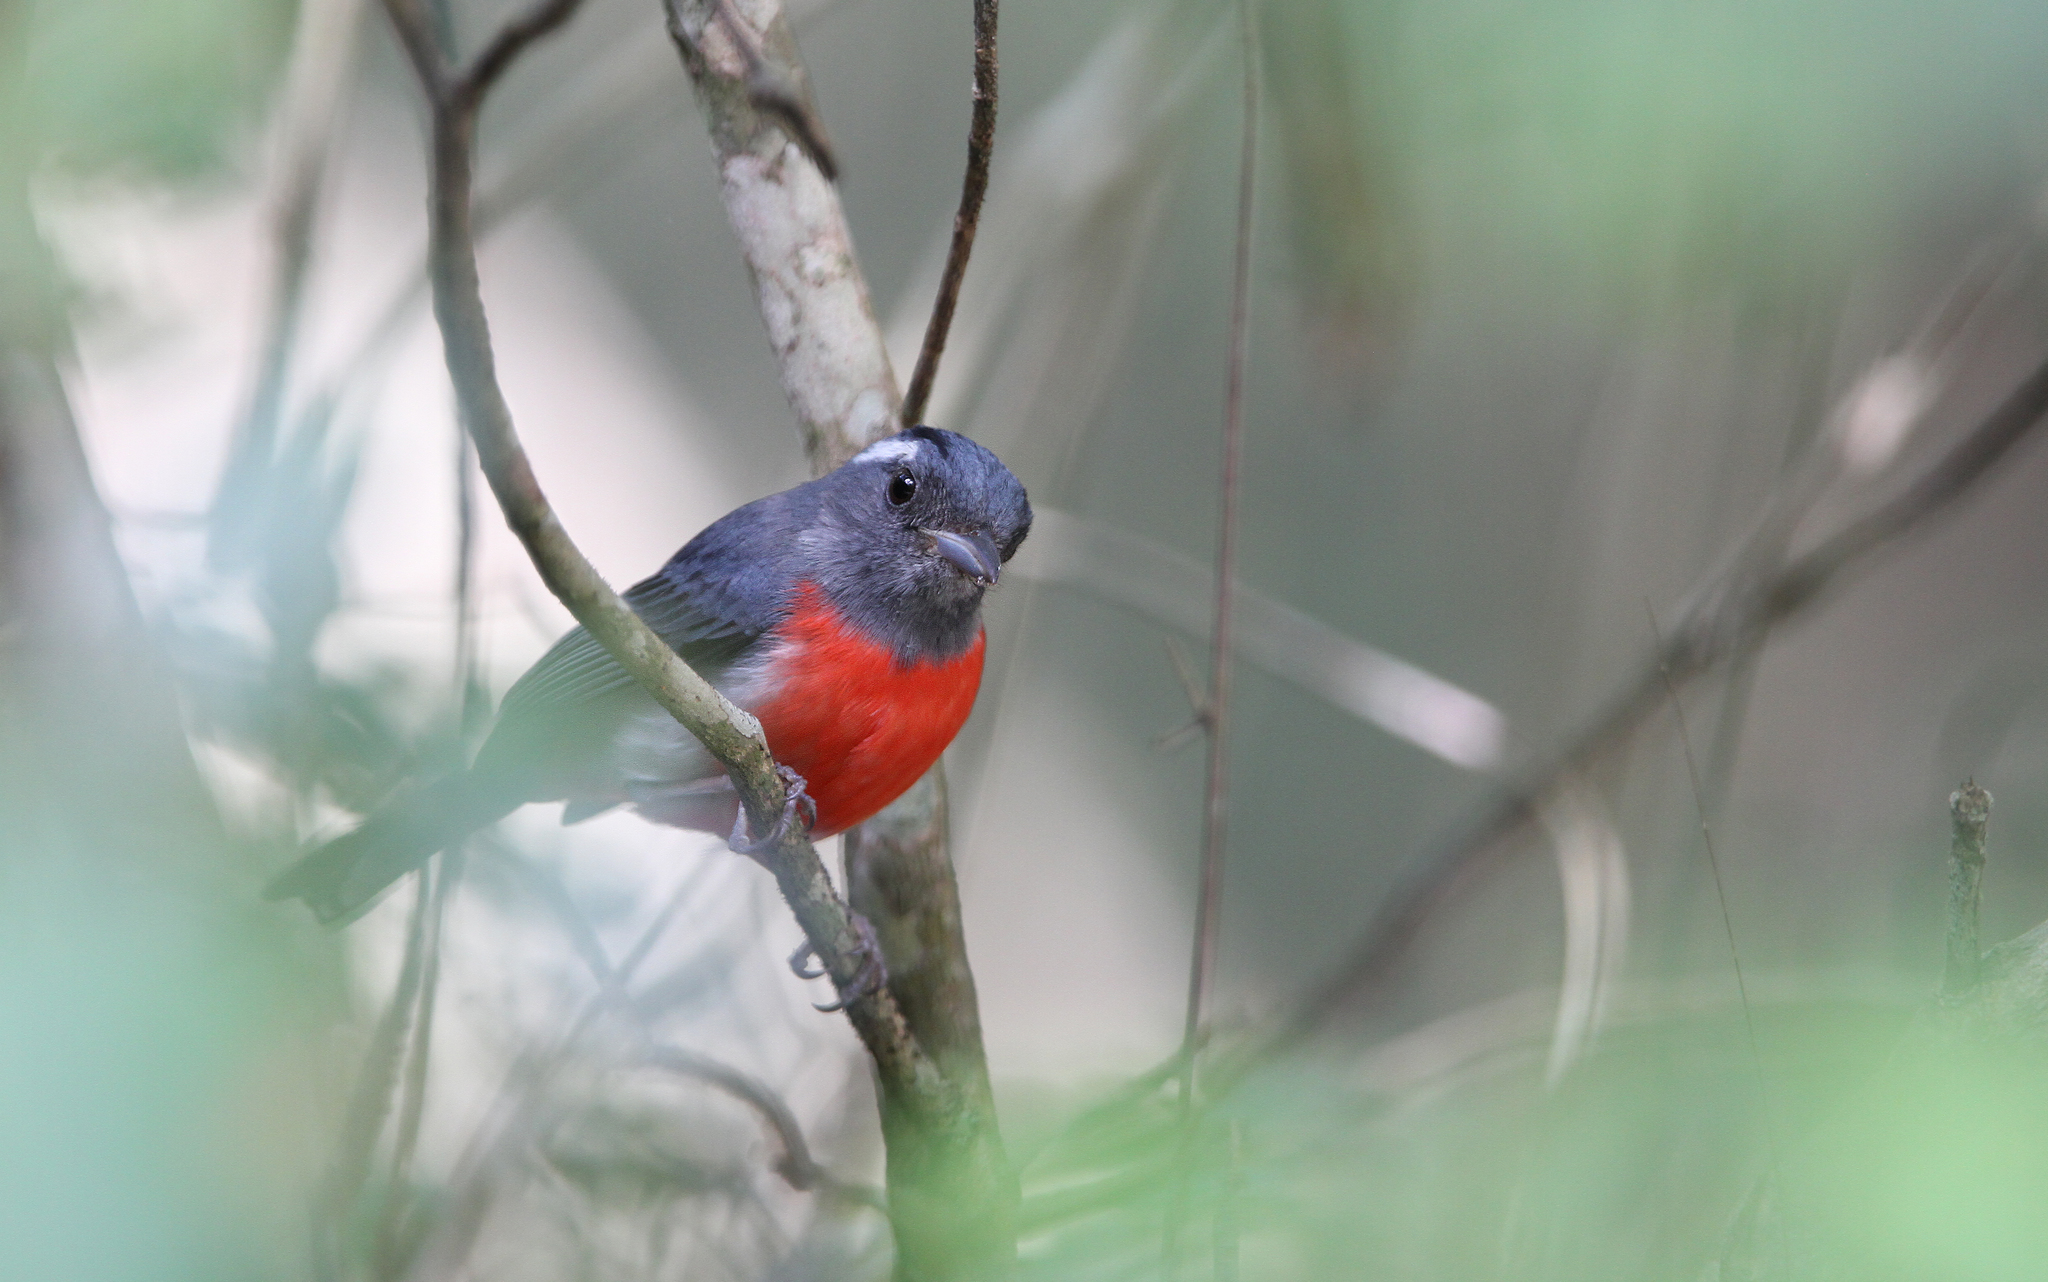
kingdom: Animalia
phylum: Chordata
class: Aves
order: Passeriformes
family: Cardinalidae
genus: Granatellus
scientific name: Granatellus sallaei
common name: Gray-throated chat
